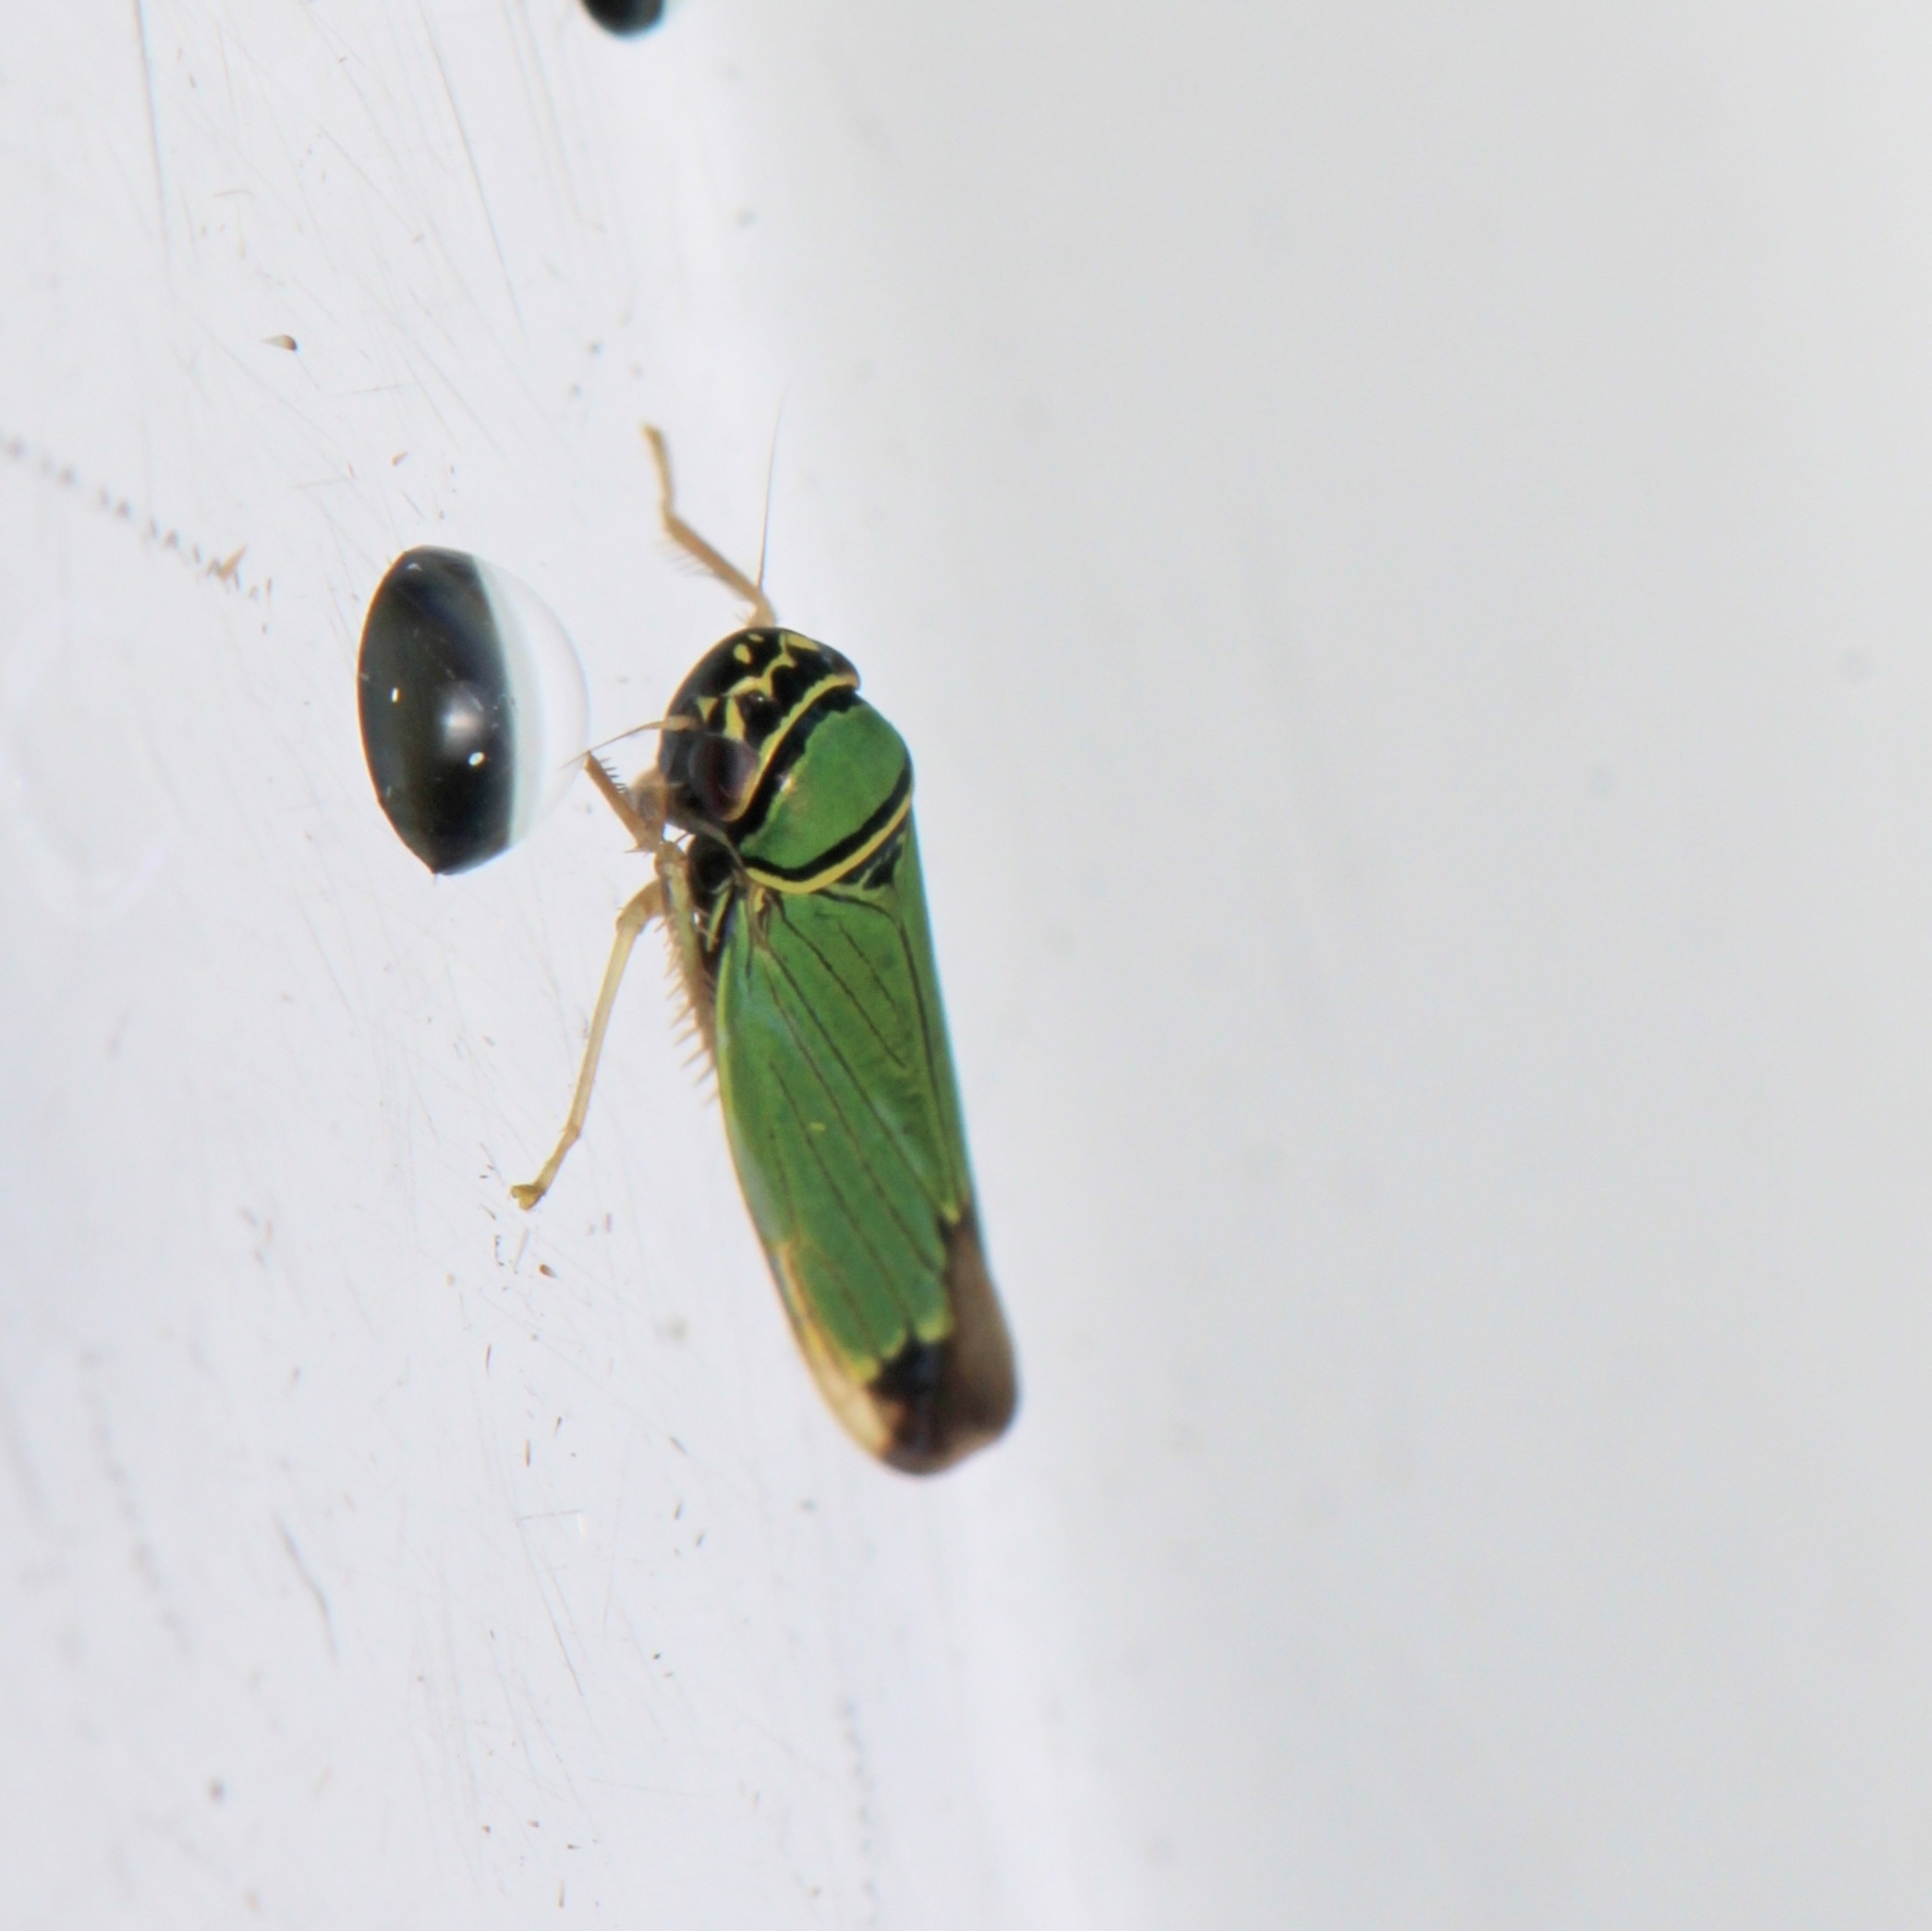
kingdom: Animalia
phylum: Arthropoda
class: Insecta
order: Hemiptera
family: Cicadellidae
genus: Tylozygus
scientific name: Tylozygus geometricus
